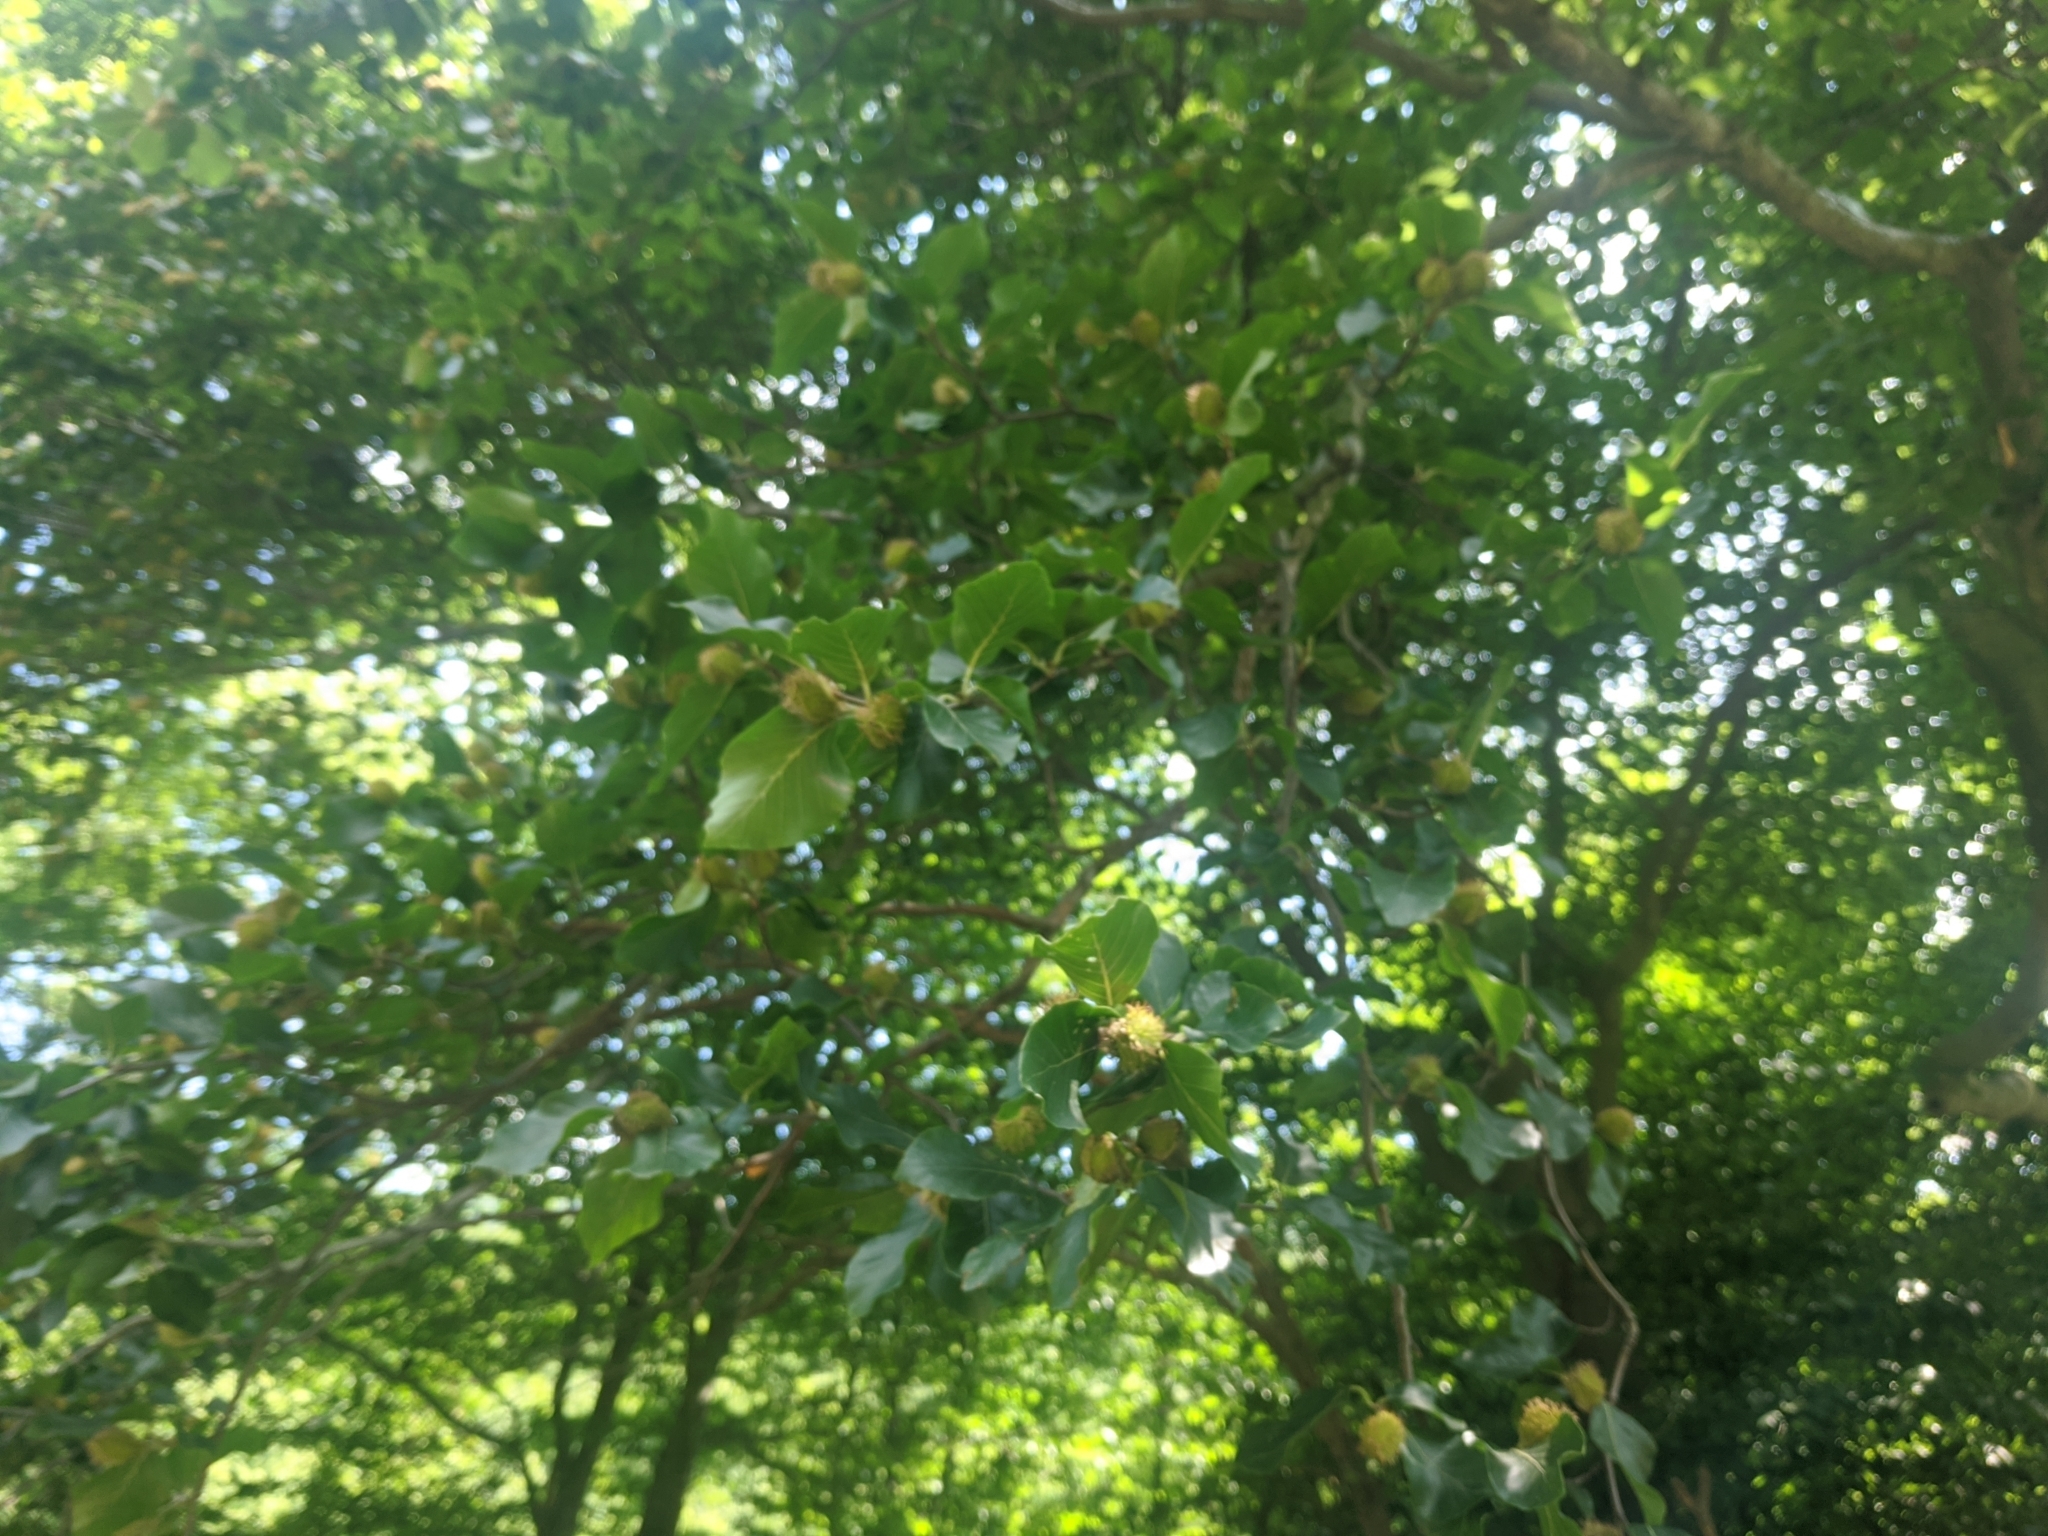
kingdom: Plantae
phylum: Tracheophyta
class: Magnoliopsida
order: Fagales
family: Fagaceae
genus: Fagus
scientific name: Fagus sylvatica
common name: Beech
